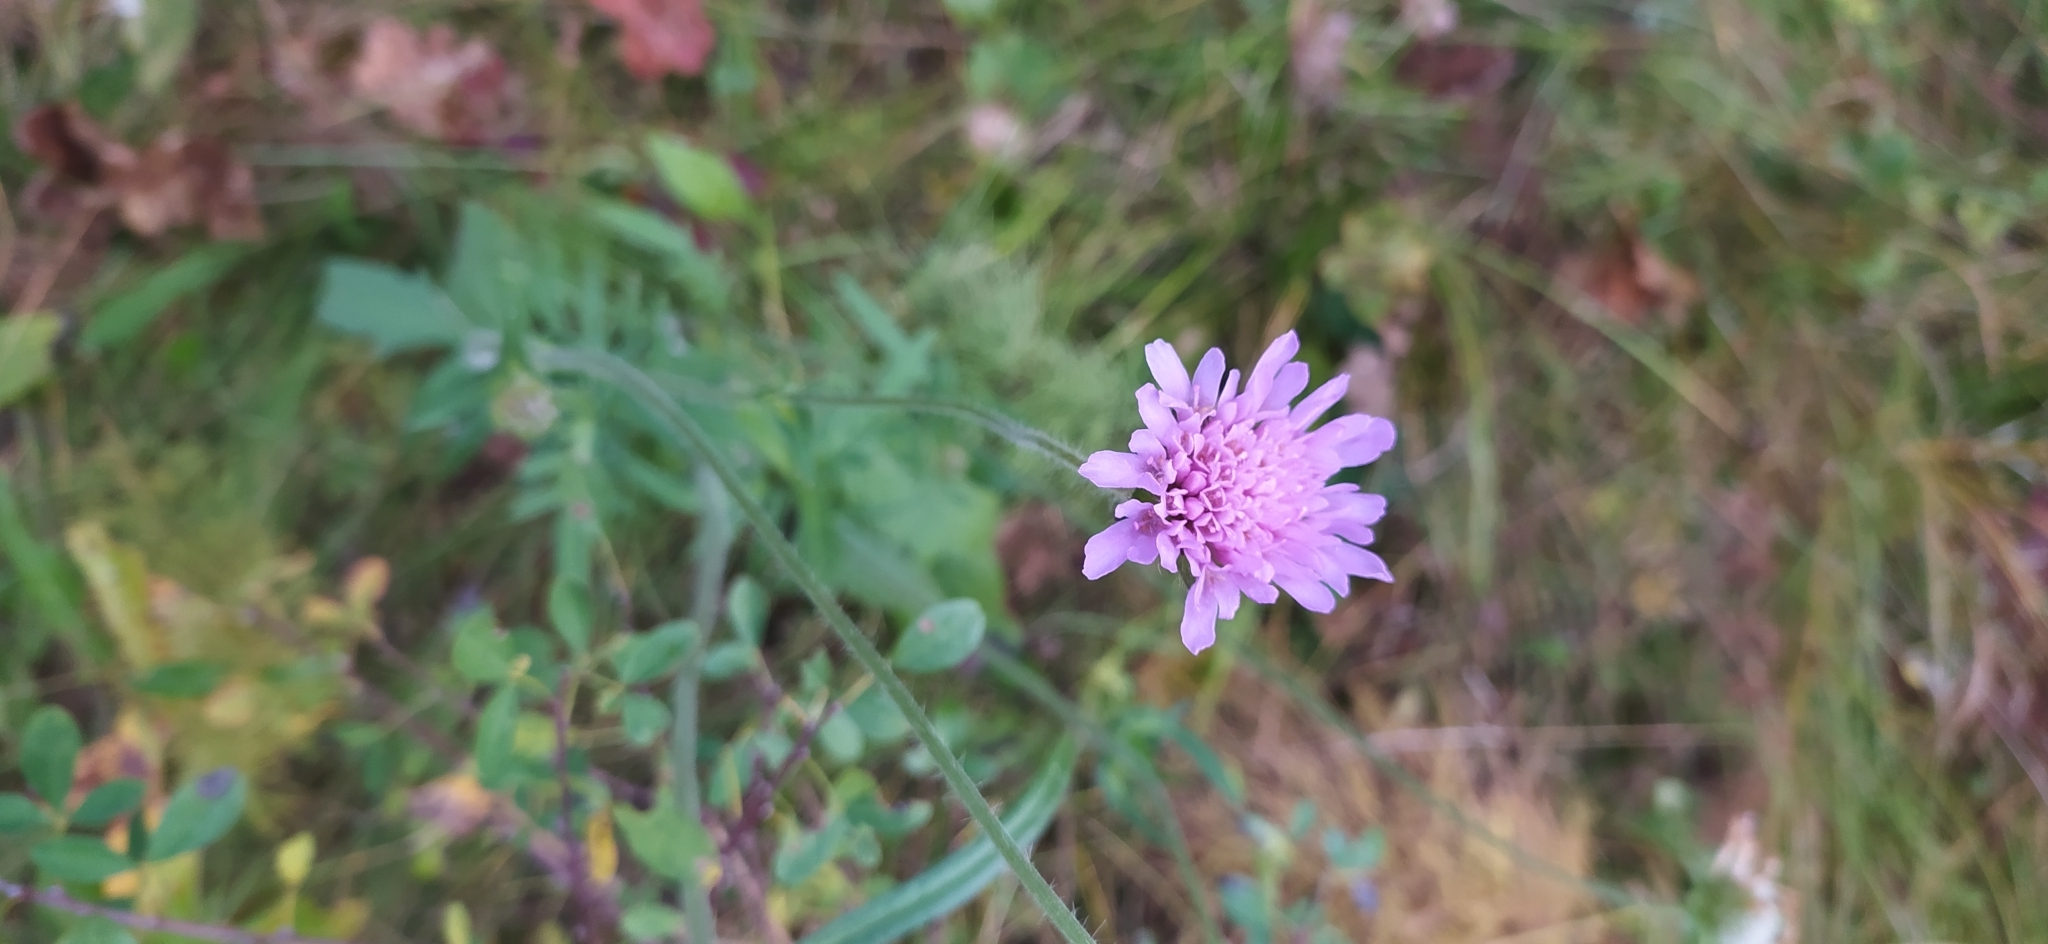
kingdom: Plantae
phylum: Tracheophyta
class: Magnoliopsida
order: Dipsacales
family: Caprifoliaceae
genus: Knautia
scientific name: Knautia arvensis
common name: Field scabiosa
